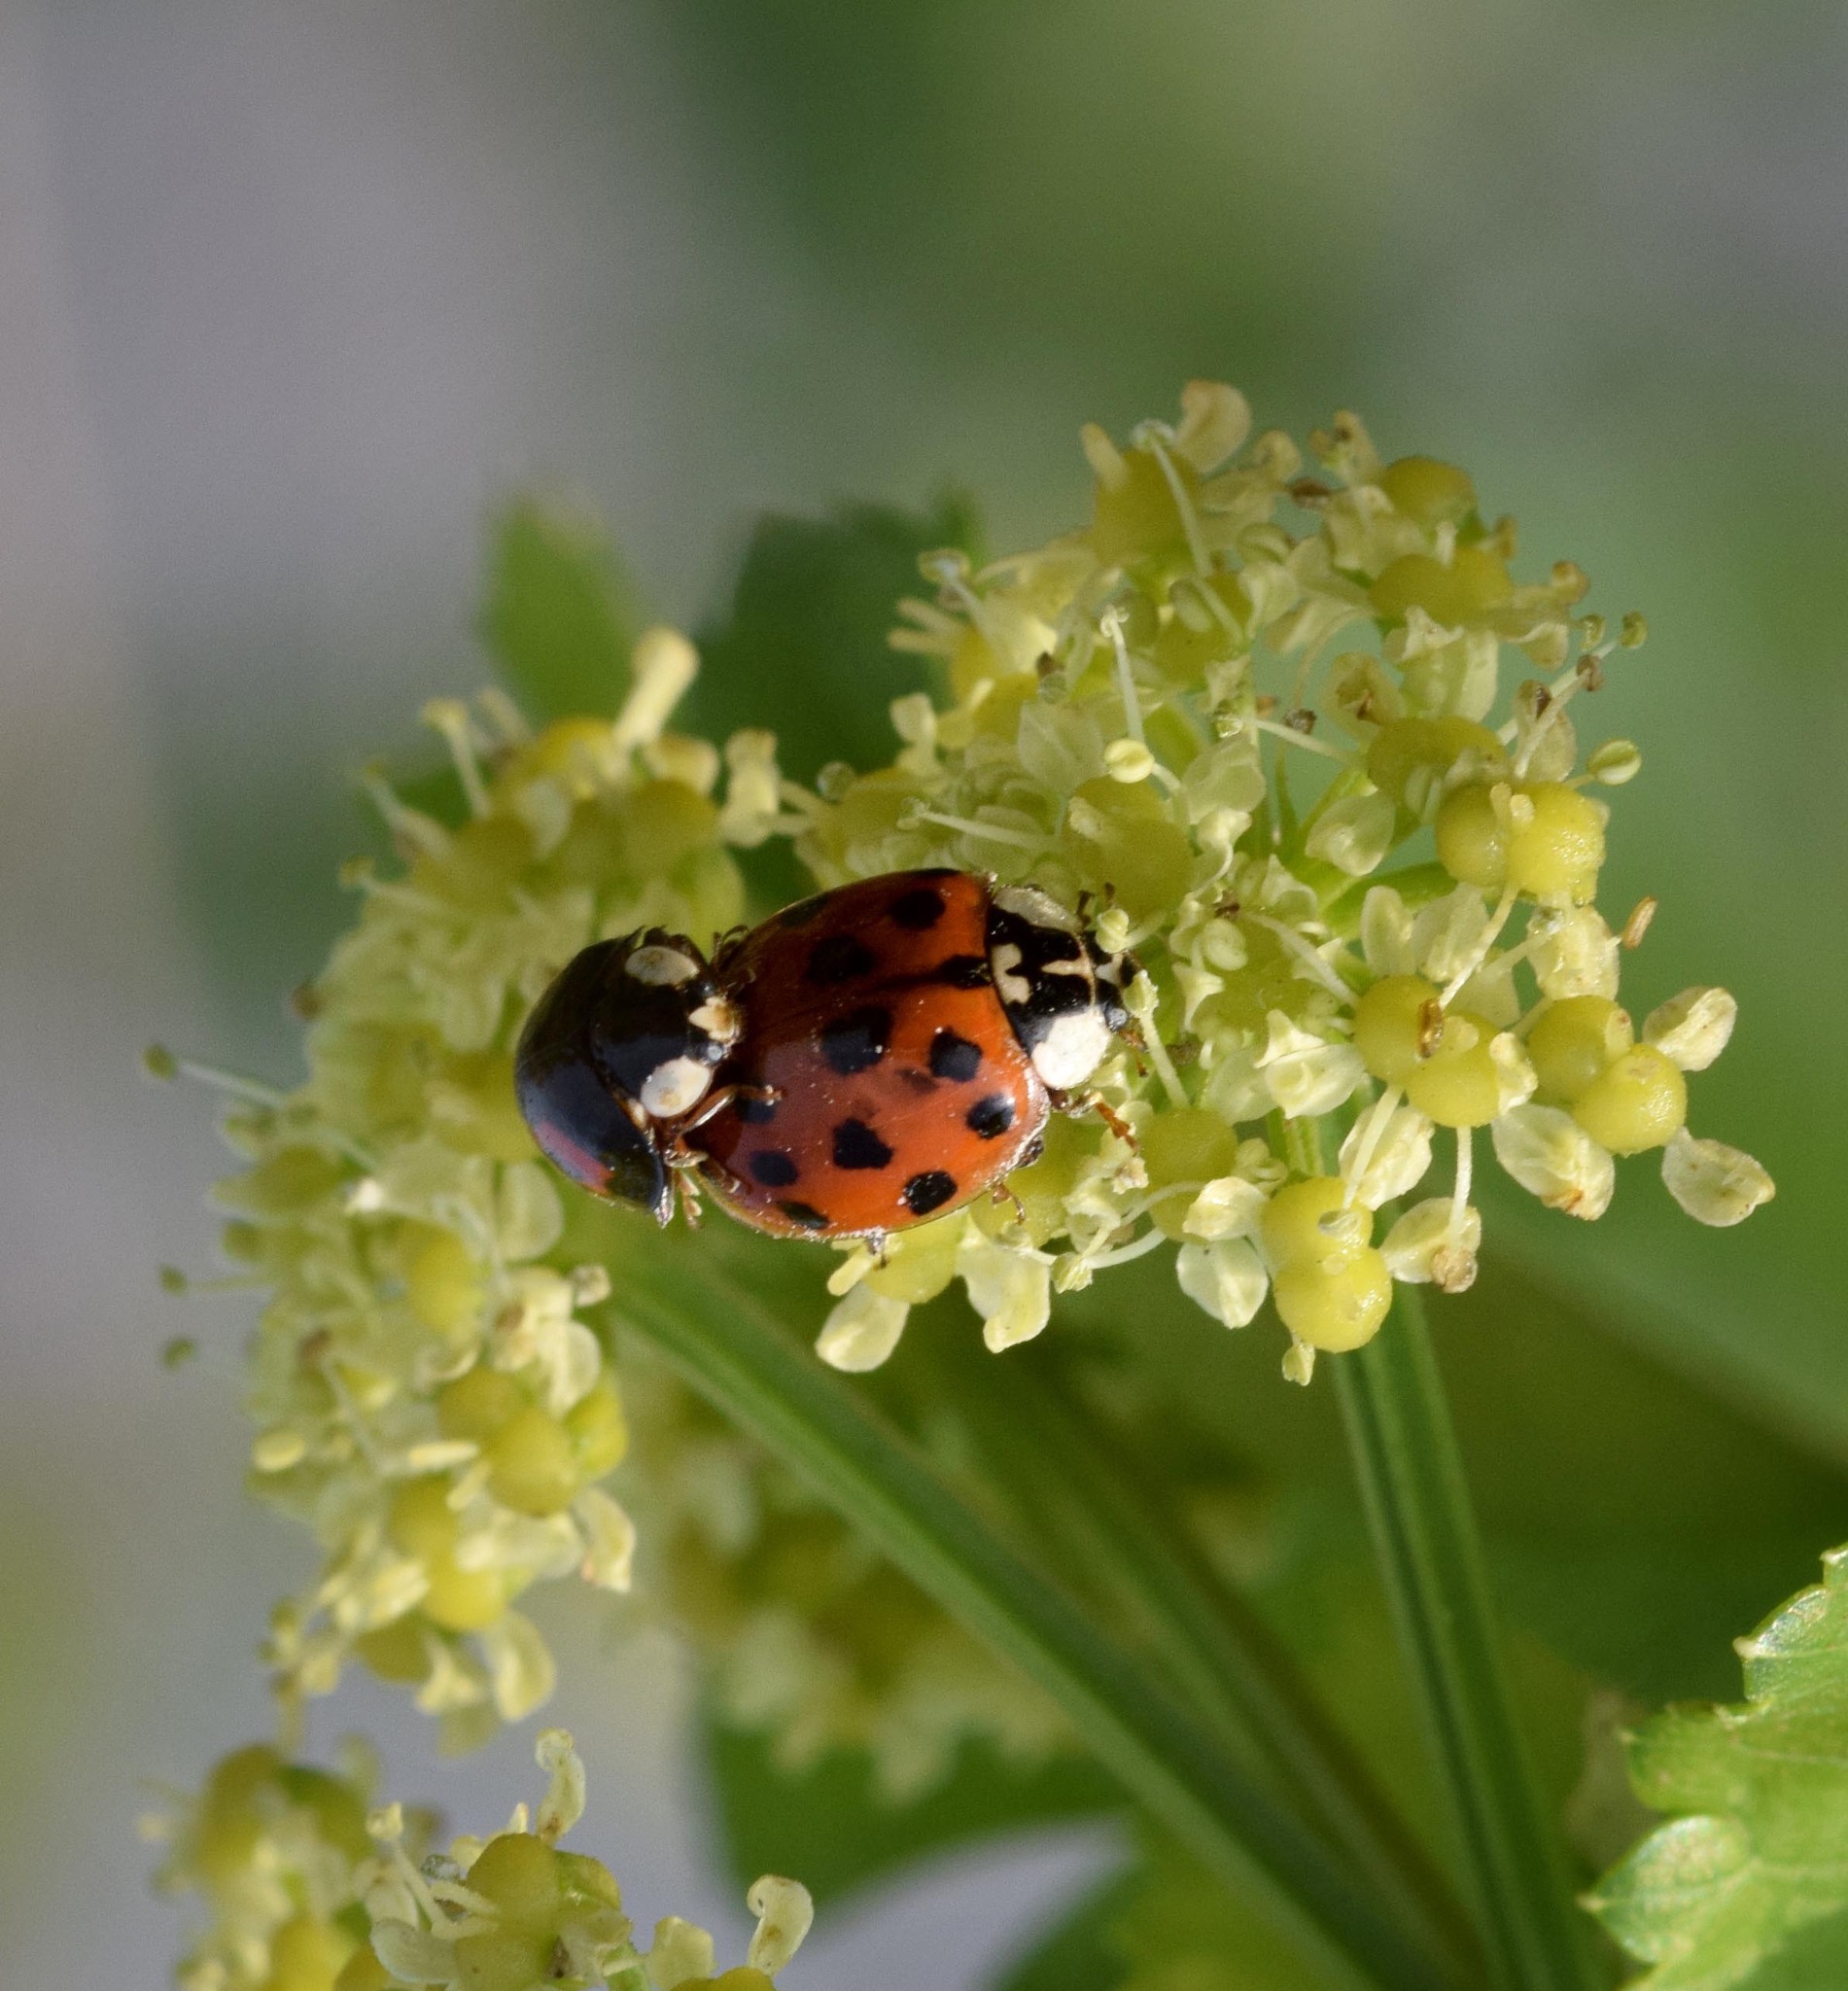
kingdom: Animalia
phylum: Arthropoda
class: Insecta
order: Coleoptera
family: Coccinellidae
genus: Harmonia
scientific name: Harmonia axyridis
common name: Harlequin ladybird
